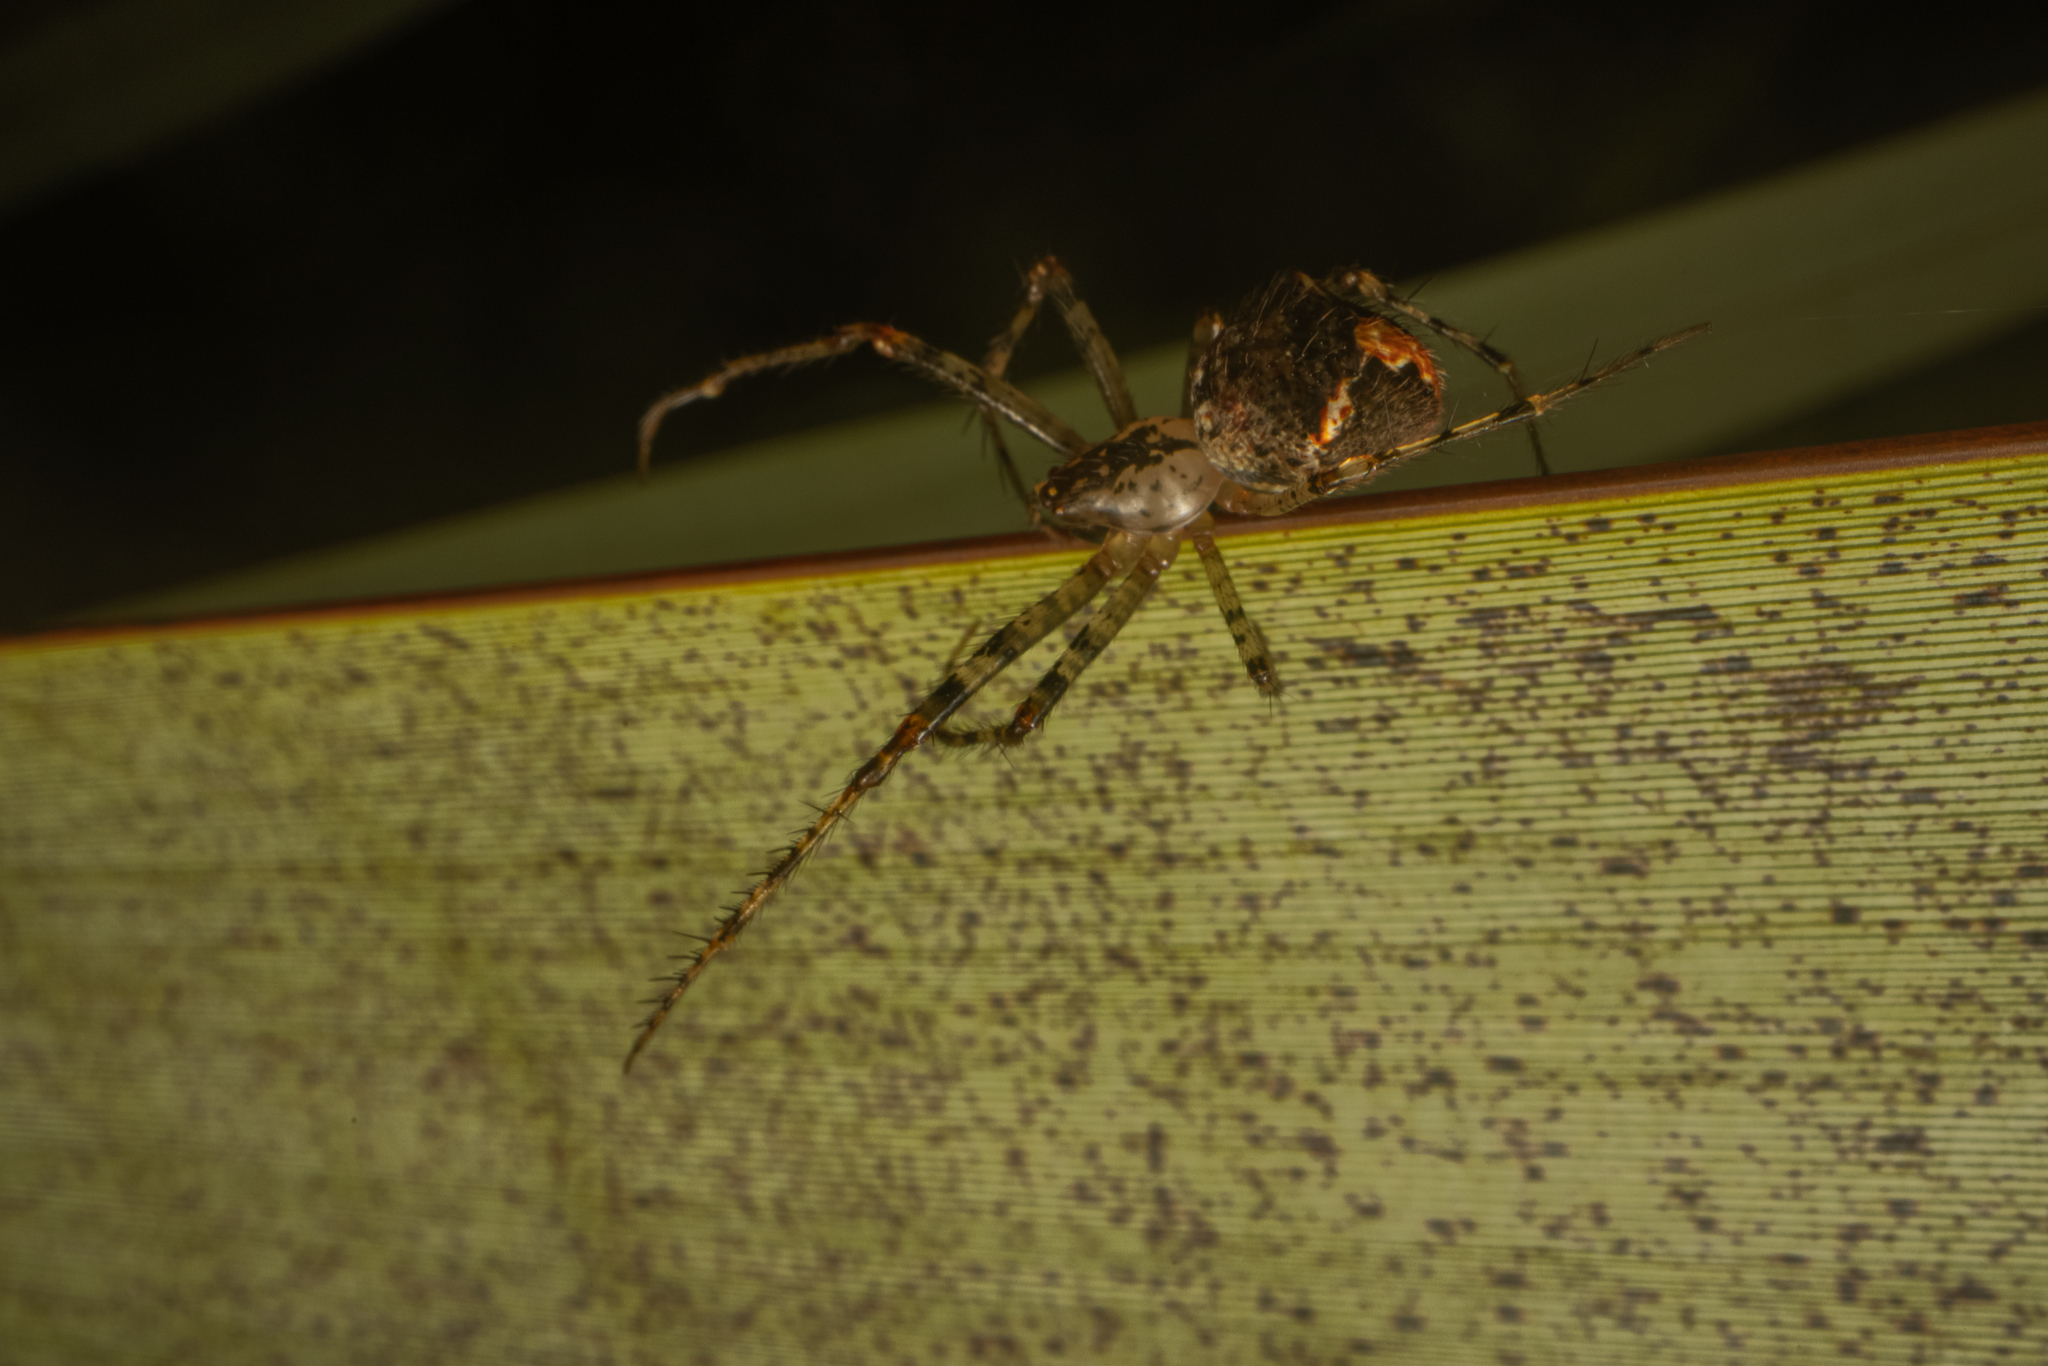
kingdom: Animalia
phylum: Arthropoda
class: Arachnida
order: Araneae
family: Mimetidae
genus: Australomimetus
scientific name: Australomimetus mendicus
